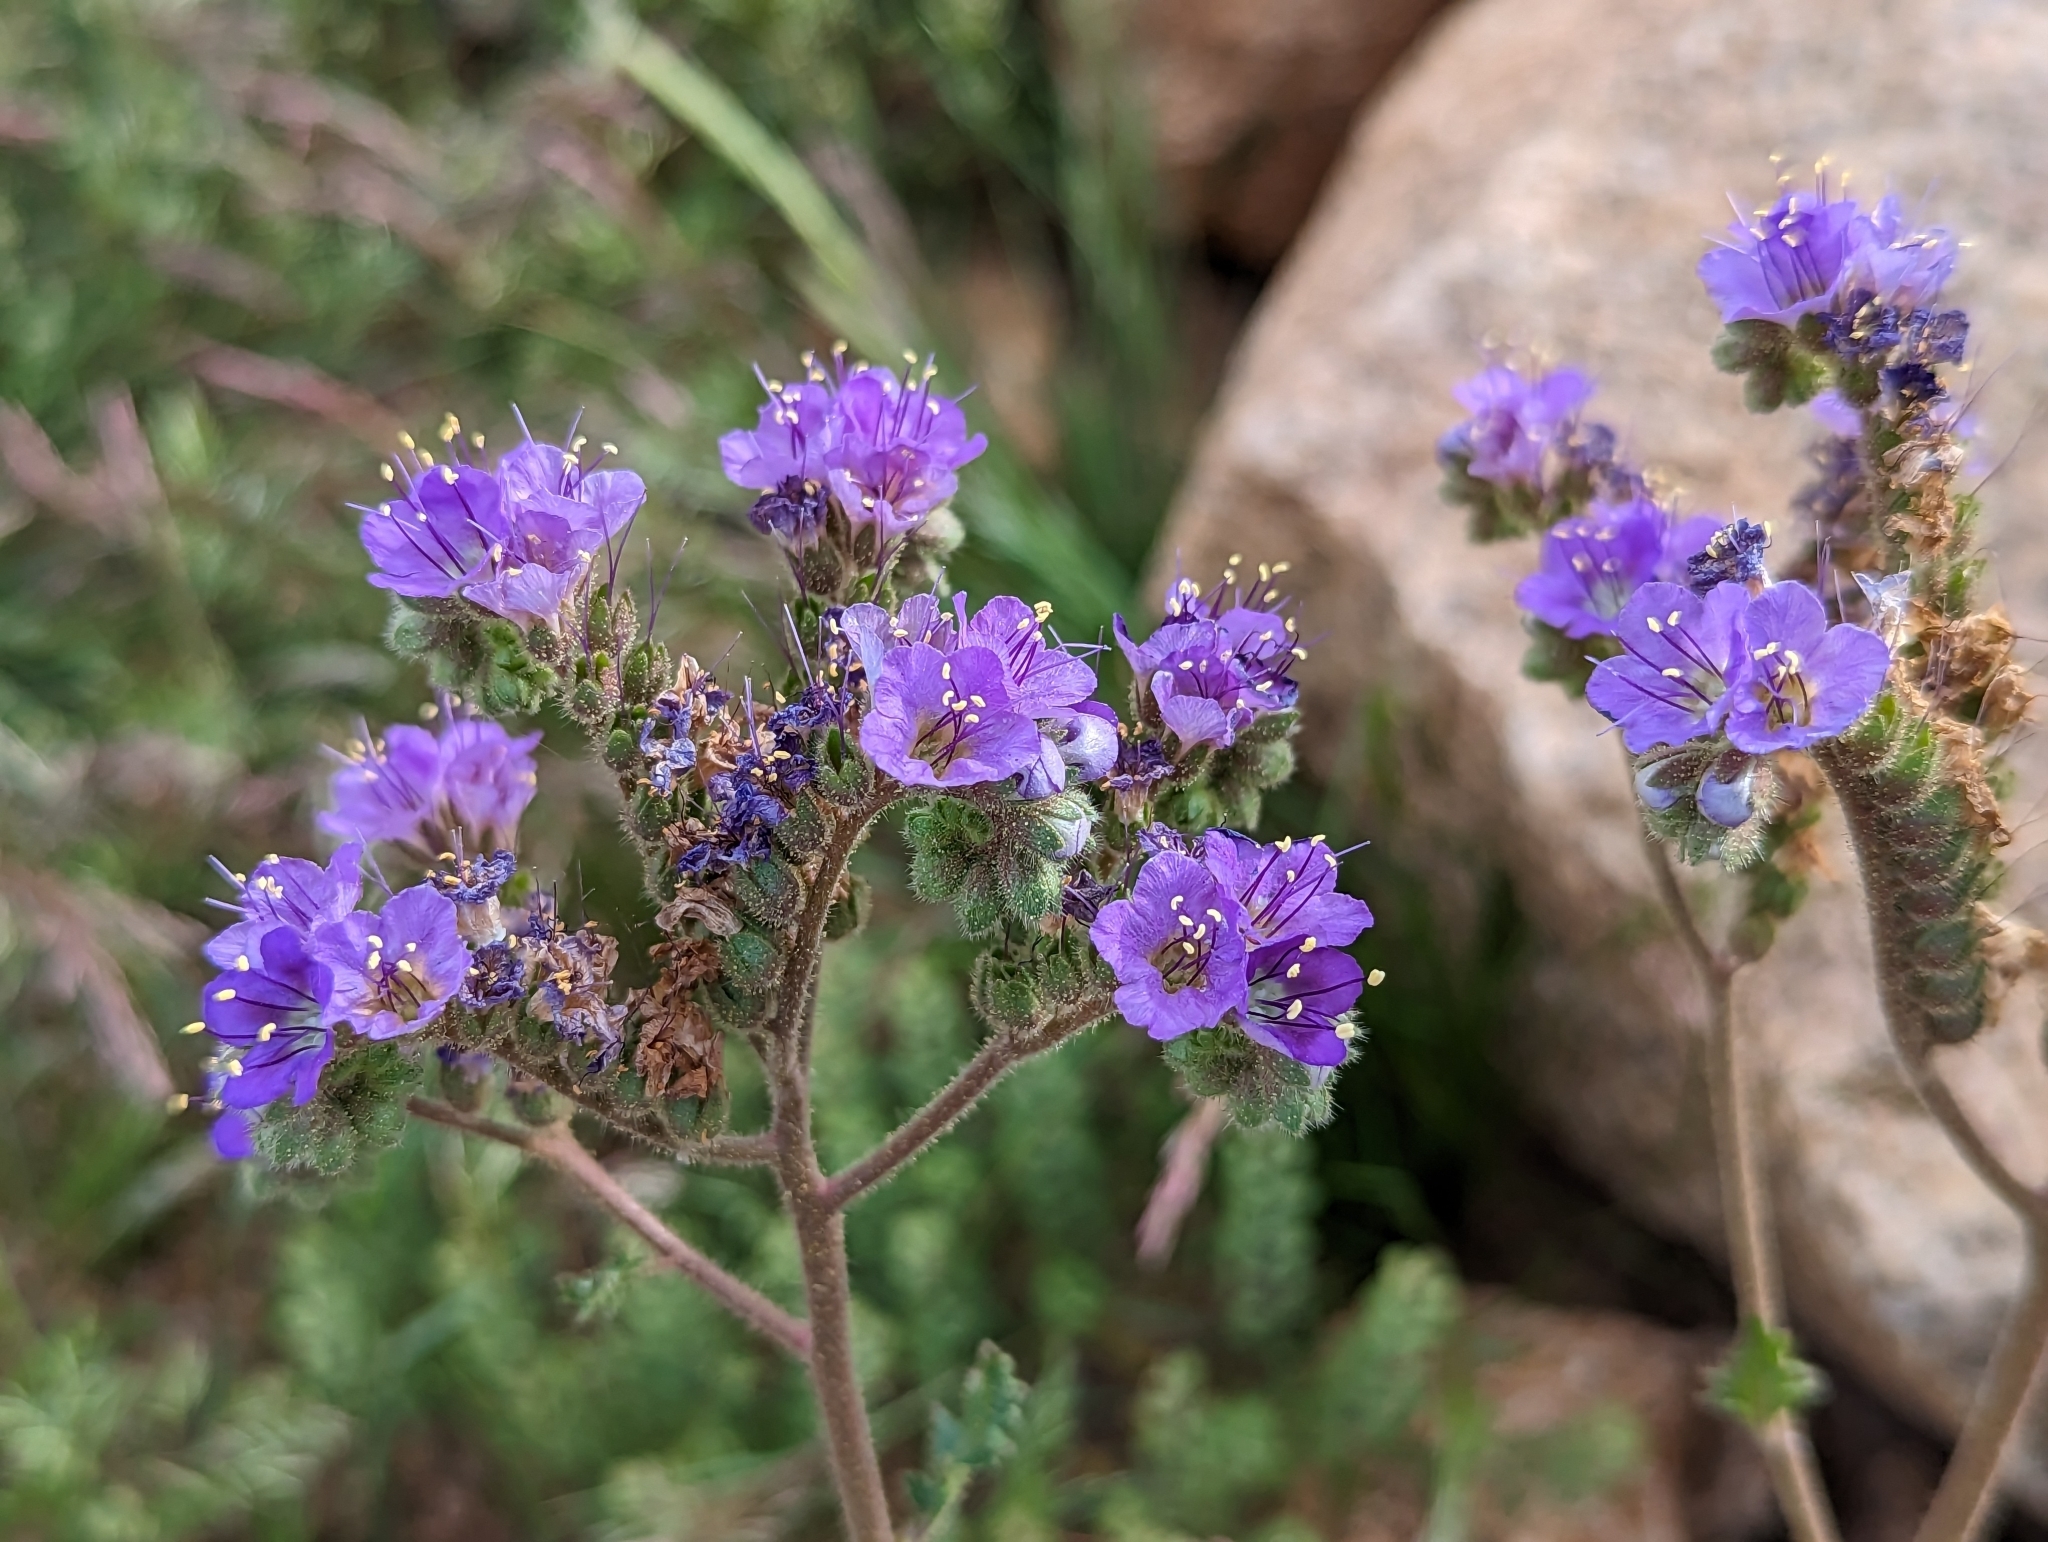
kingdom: Plantae
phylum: Tracheophyta
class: Magnoliopsida
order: Boraginales
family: Hydrophyllaceae
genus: Phacelia
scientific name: Phacelia crenulata
